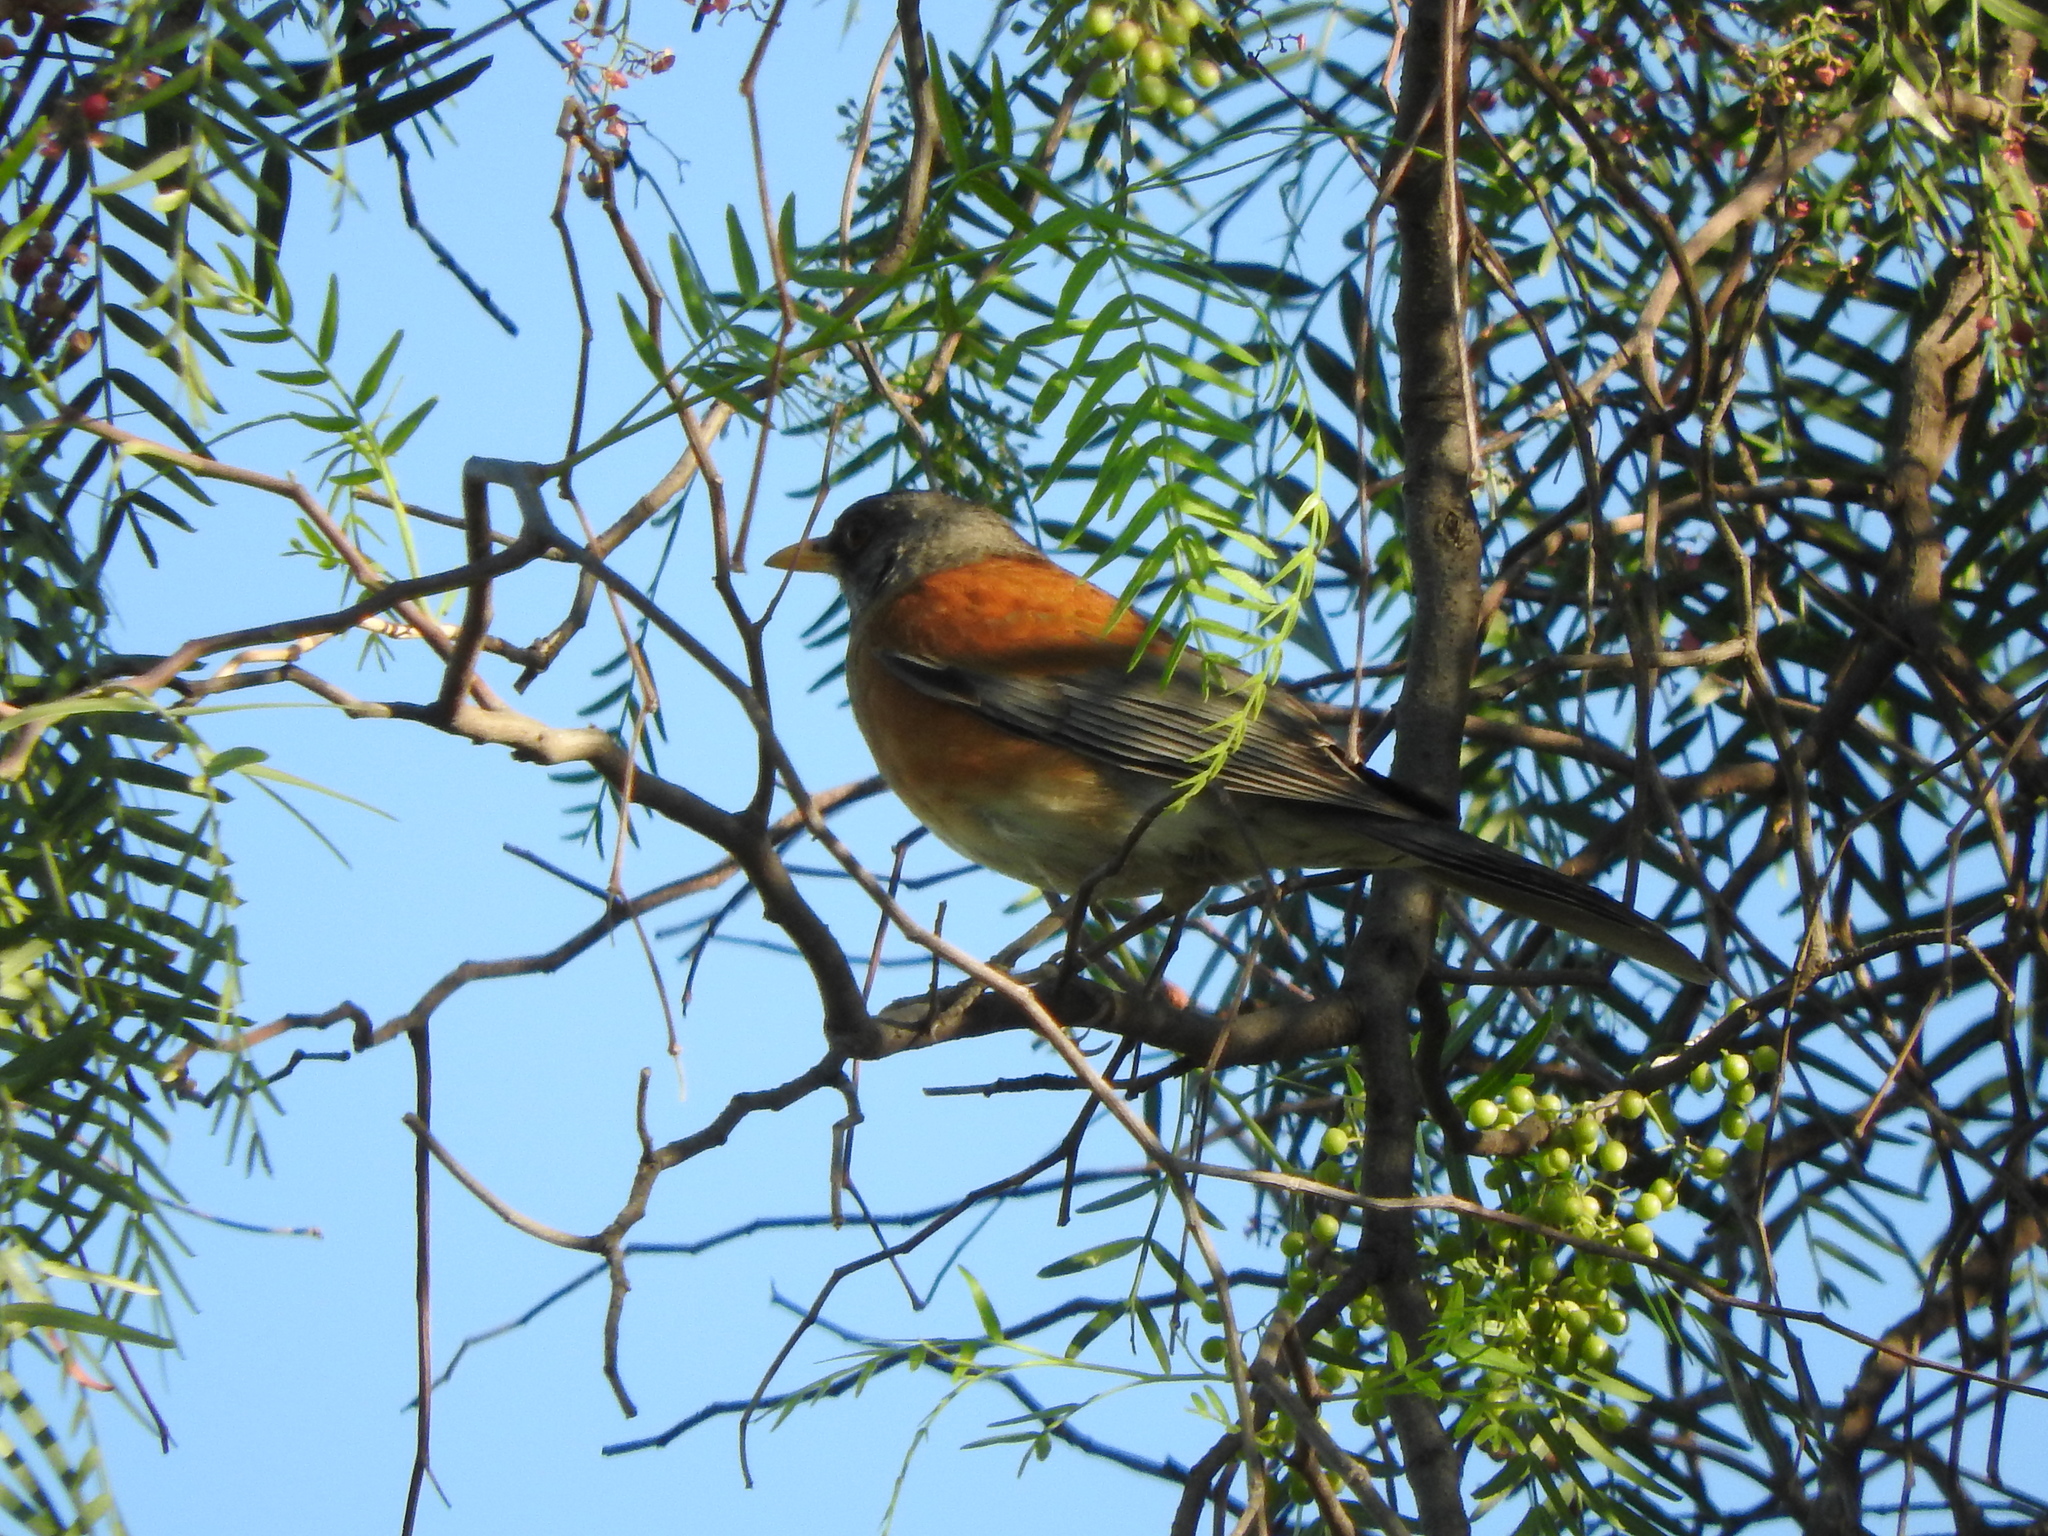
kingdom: Animalia
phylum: Chordata
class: Aves
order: Passeriformes
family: Turdidae
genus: Turdus
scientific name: Turdus rufopalliatus
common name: Rufous-backed robin
